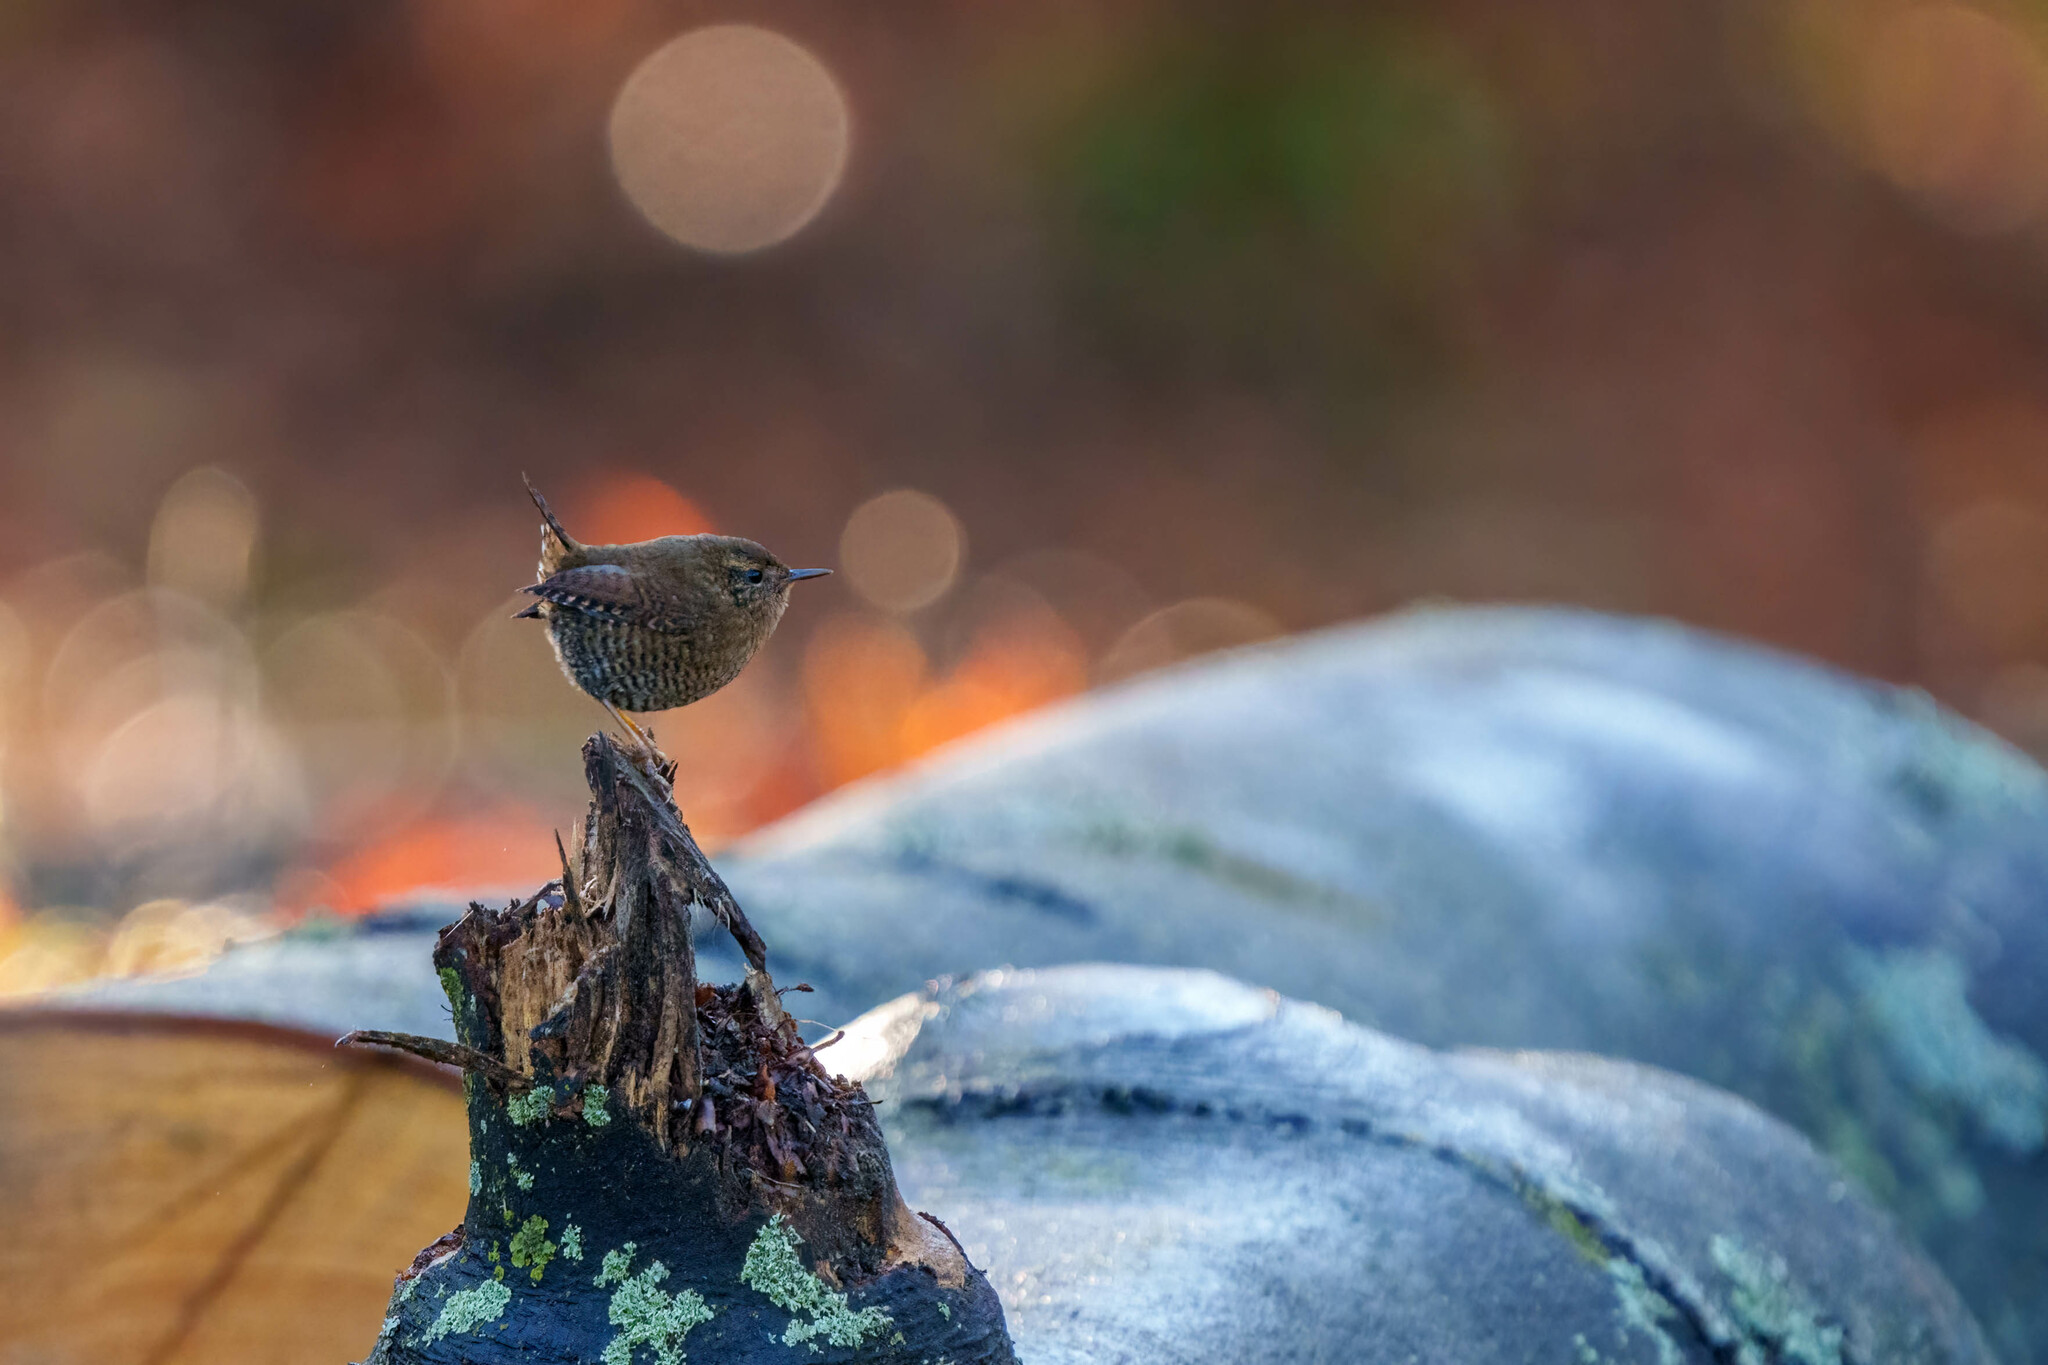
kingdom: Animalia
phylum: Chordata
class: Aves
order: Passeriformes
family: Troglodytidae
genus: Troglodytes
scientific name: Troglodytes pacificus
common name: Pacific wren
